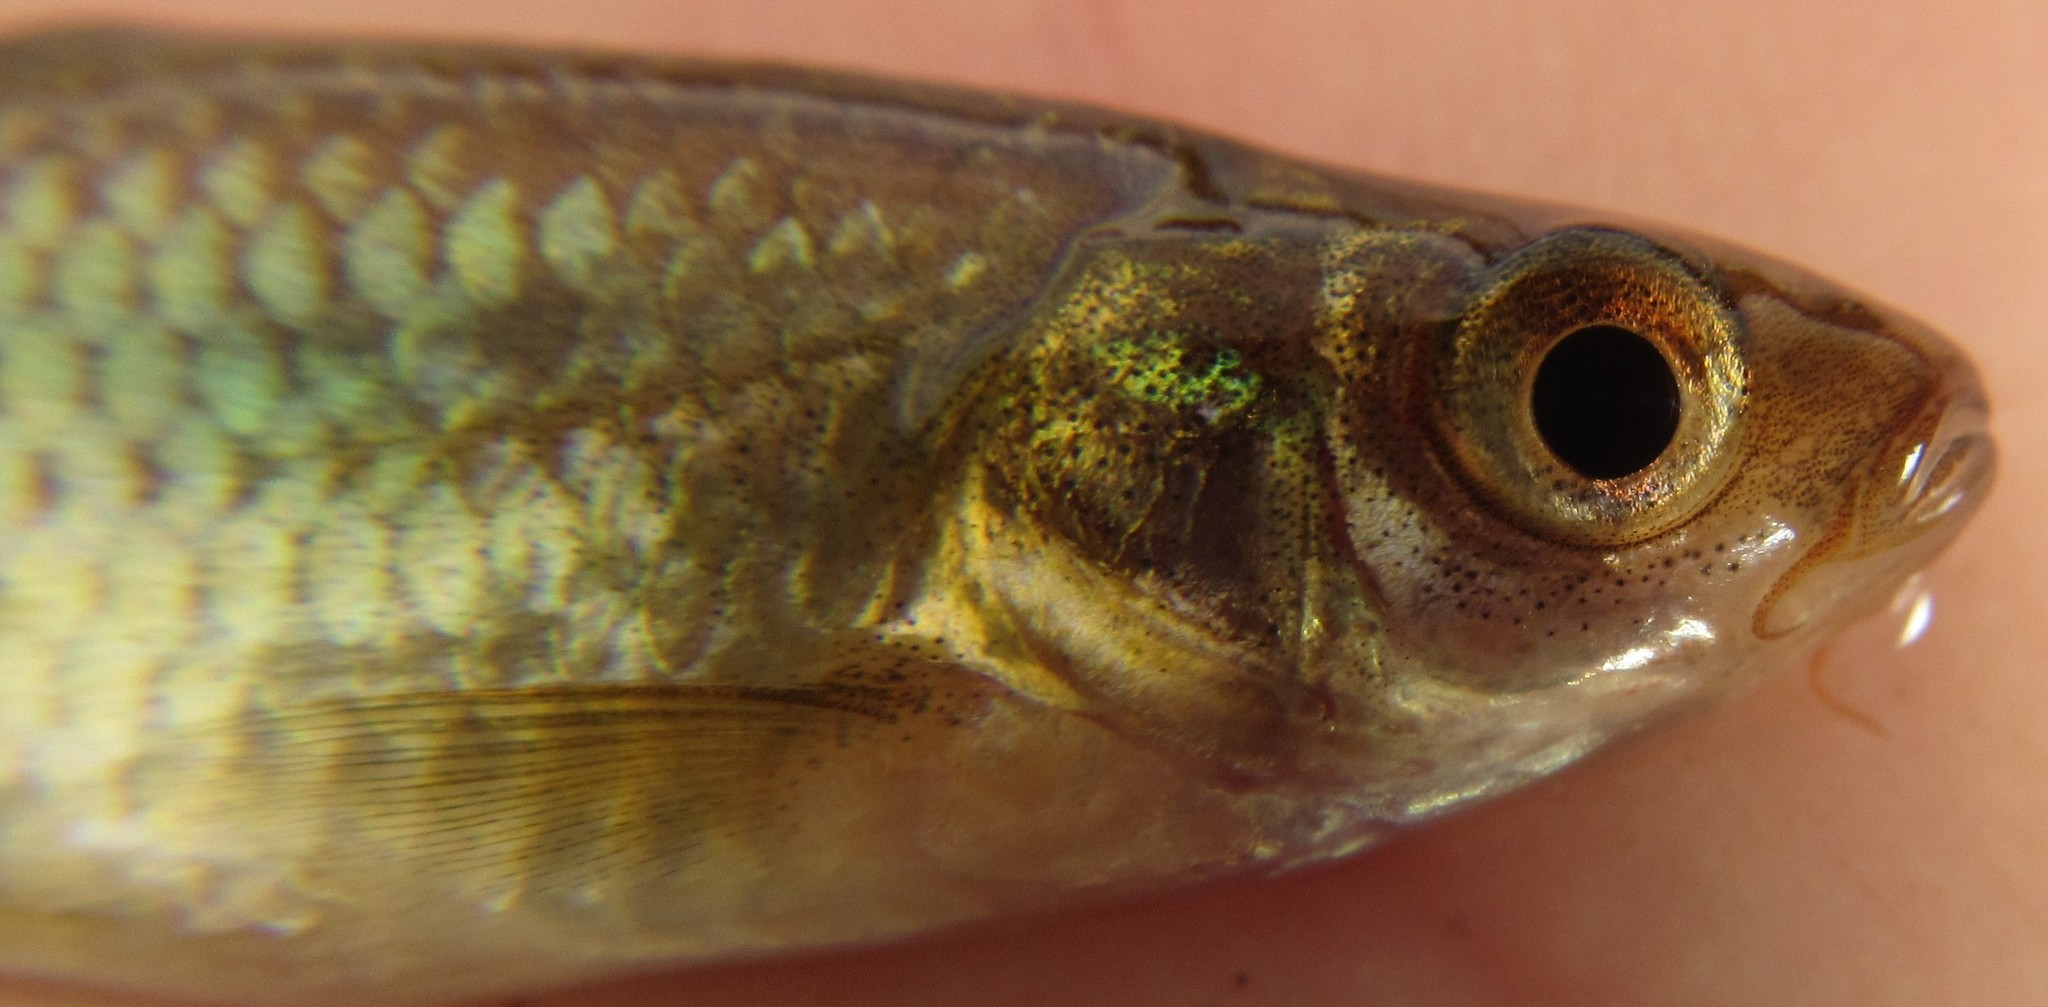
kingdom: Animalia
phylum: Chordata
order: Cypriniformes
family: Cyprinidae
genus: Enteromius
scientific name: Enteromius paludinosus
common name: Straightfin barb
